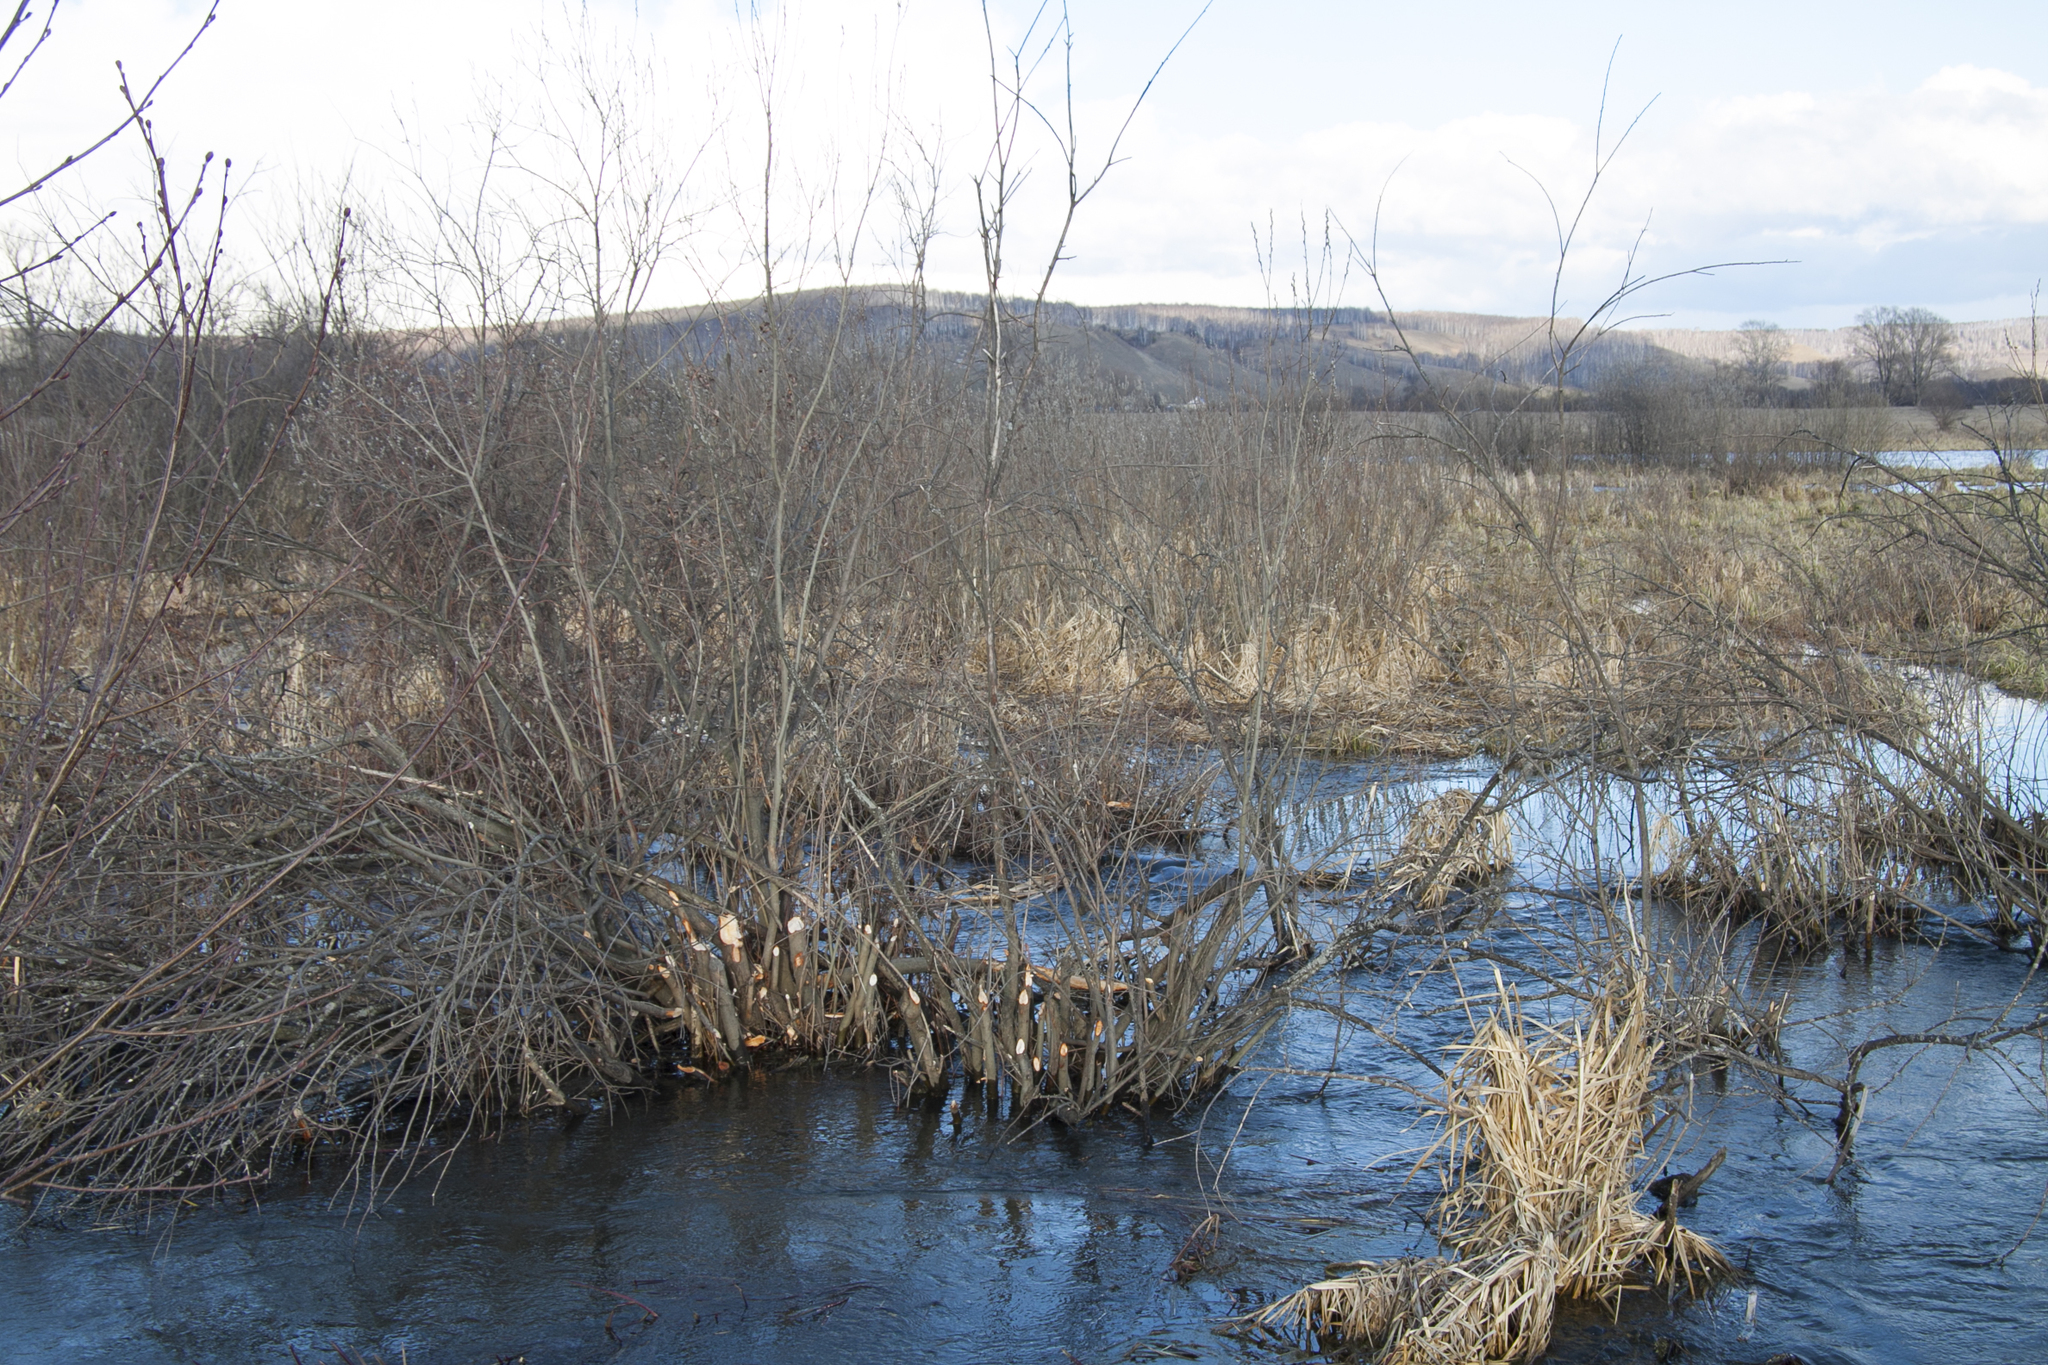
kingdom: Animalia
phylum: Chordata
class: Mammalia
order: Rodentia
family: Castoridae
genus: Castor
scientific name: Castor fiber
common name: Eurasian beaver
